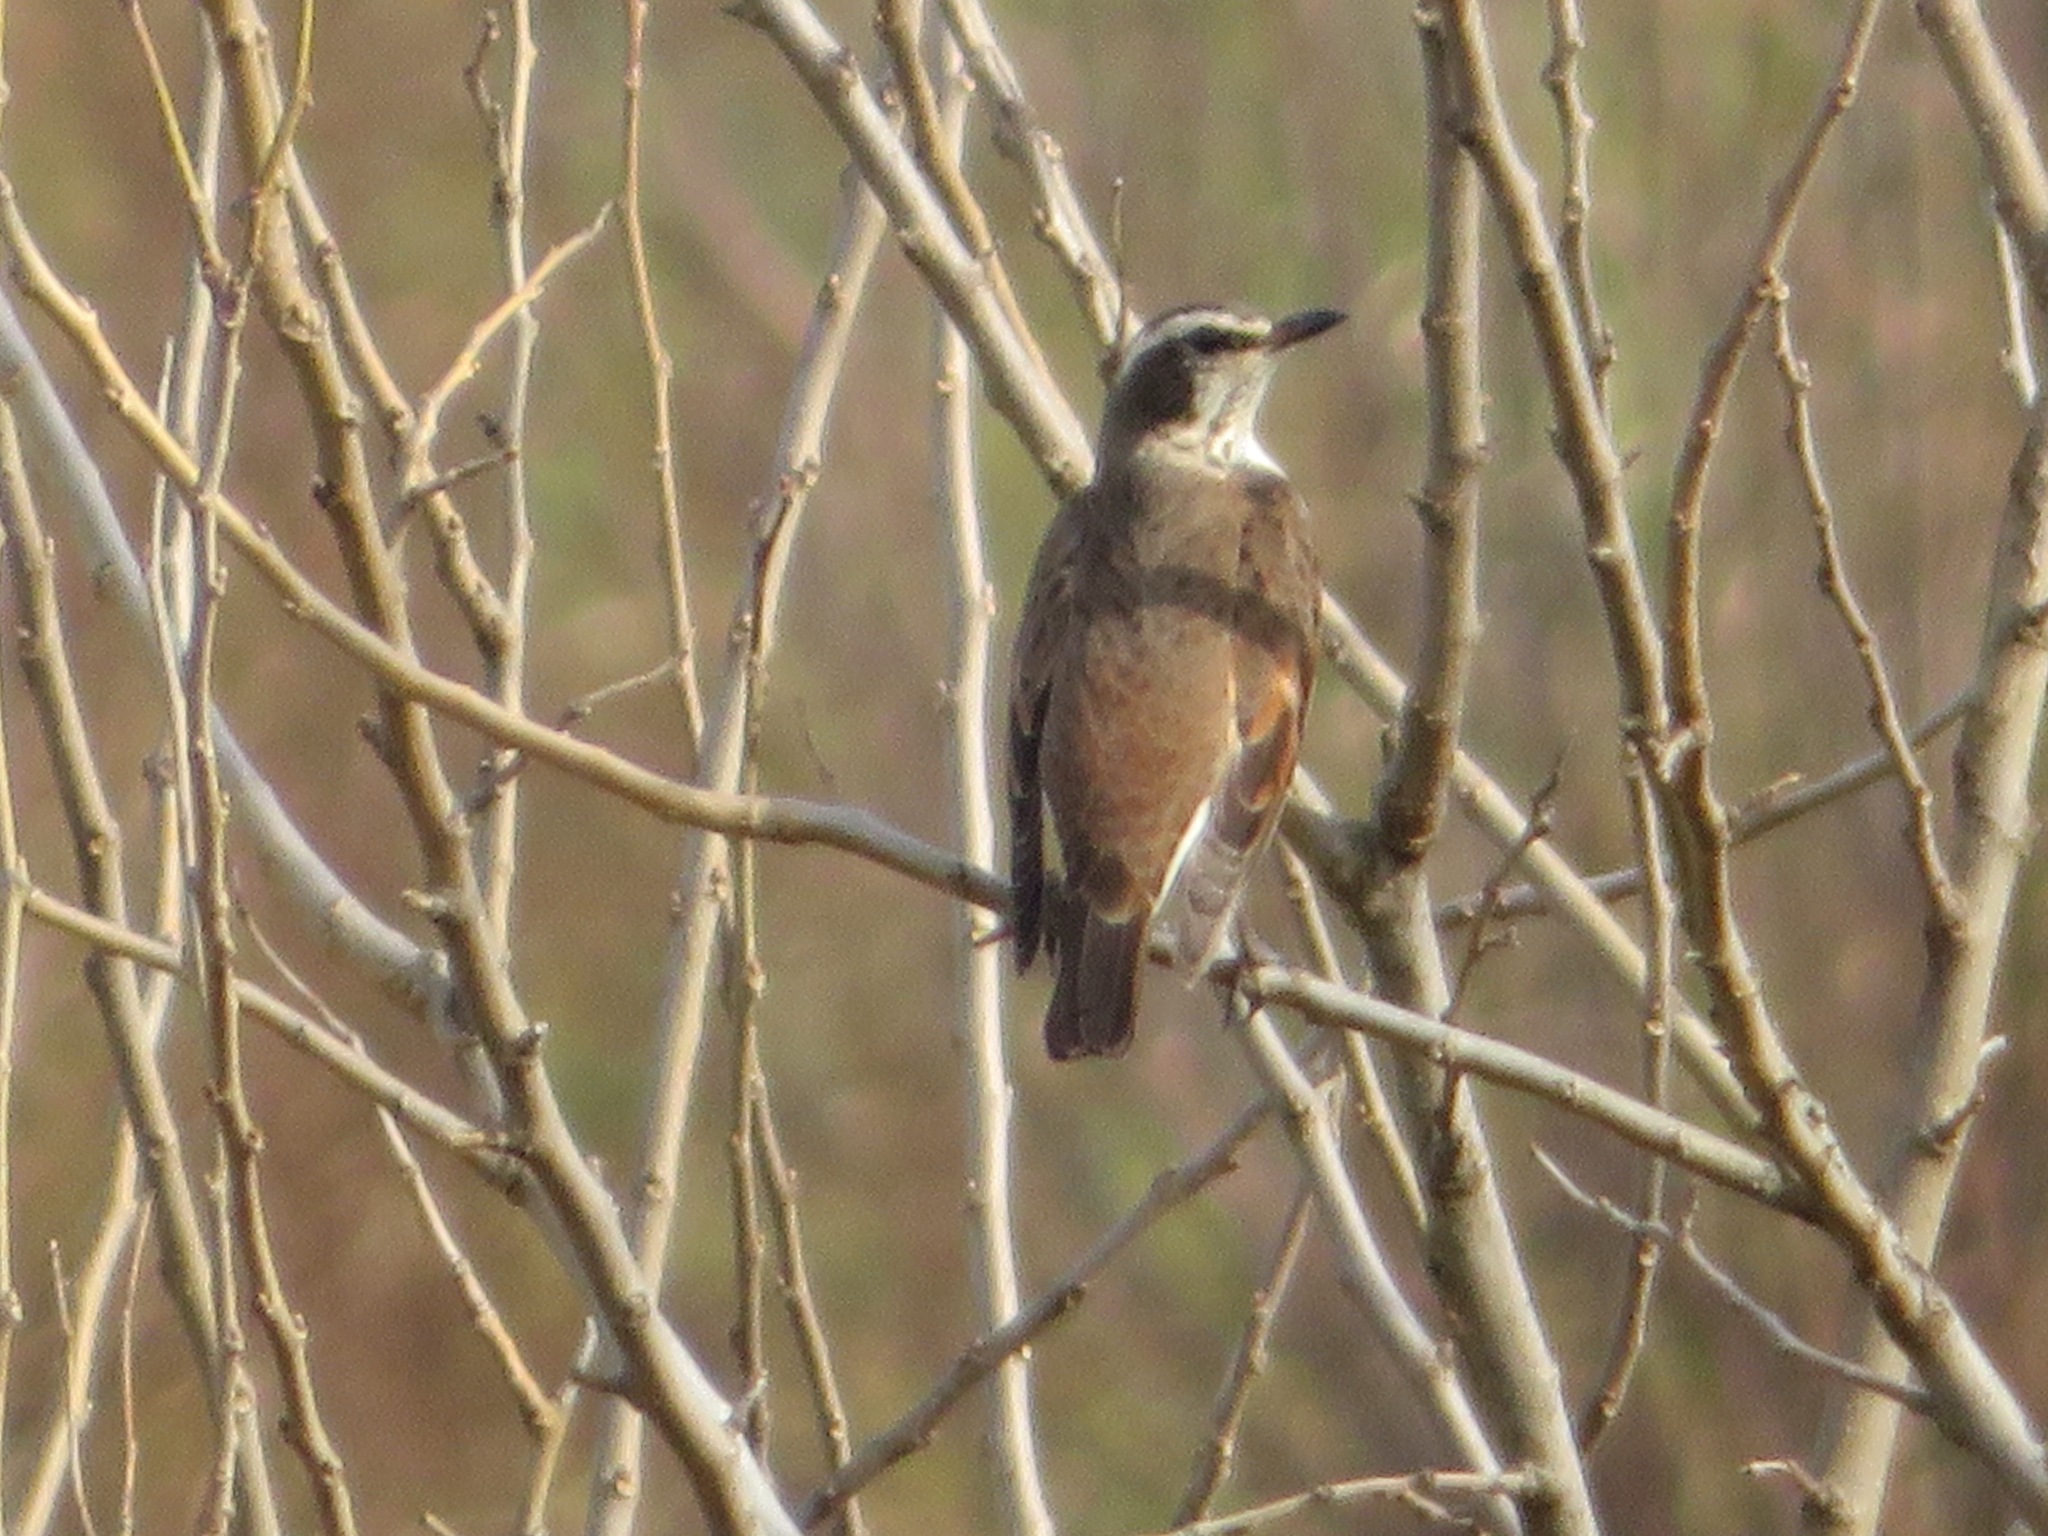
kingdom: Animalia
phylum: Chordata
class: Aves
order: Passeriformes
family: Turdidae
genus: Turdus
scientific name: Turdus eunomus
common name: Dusky thrush
